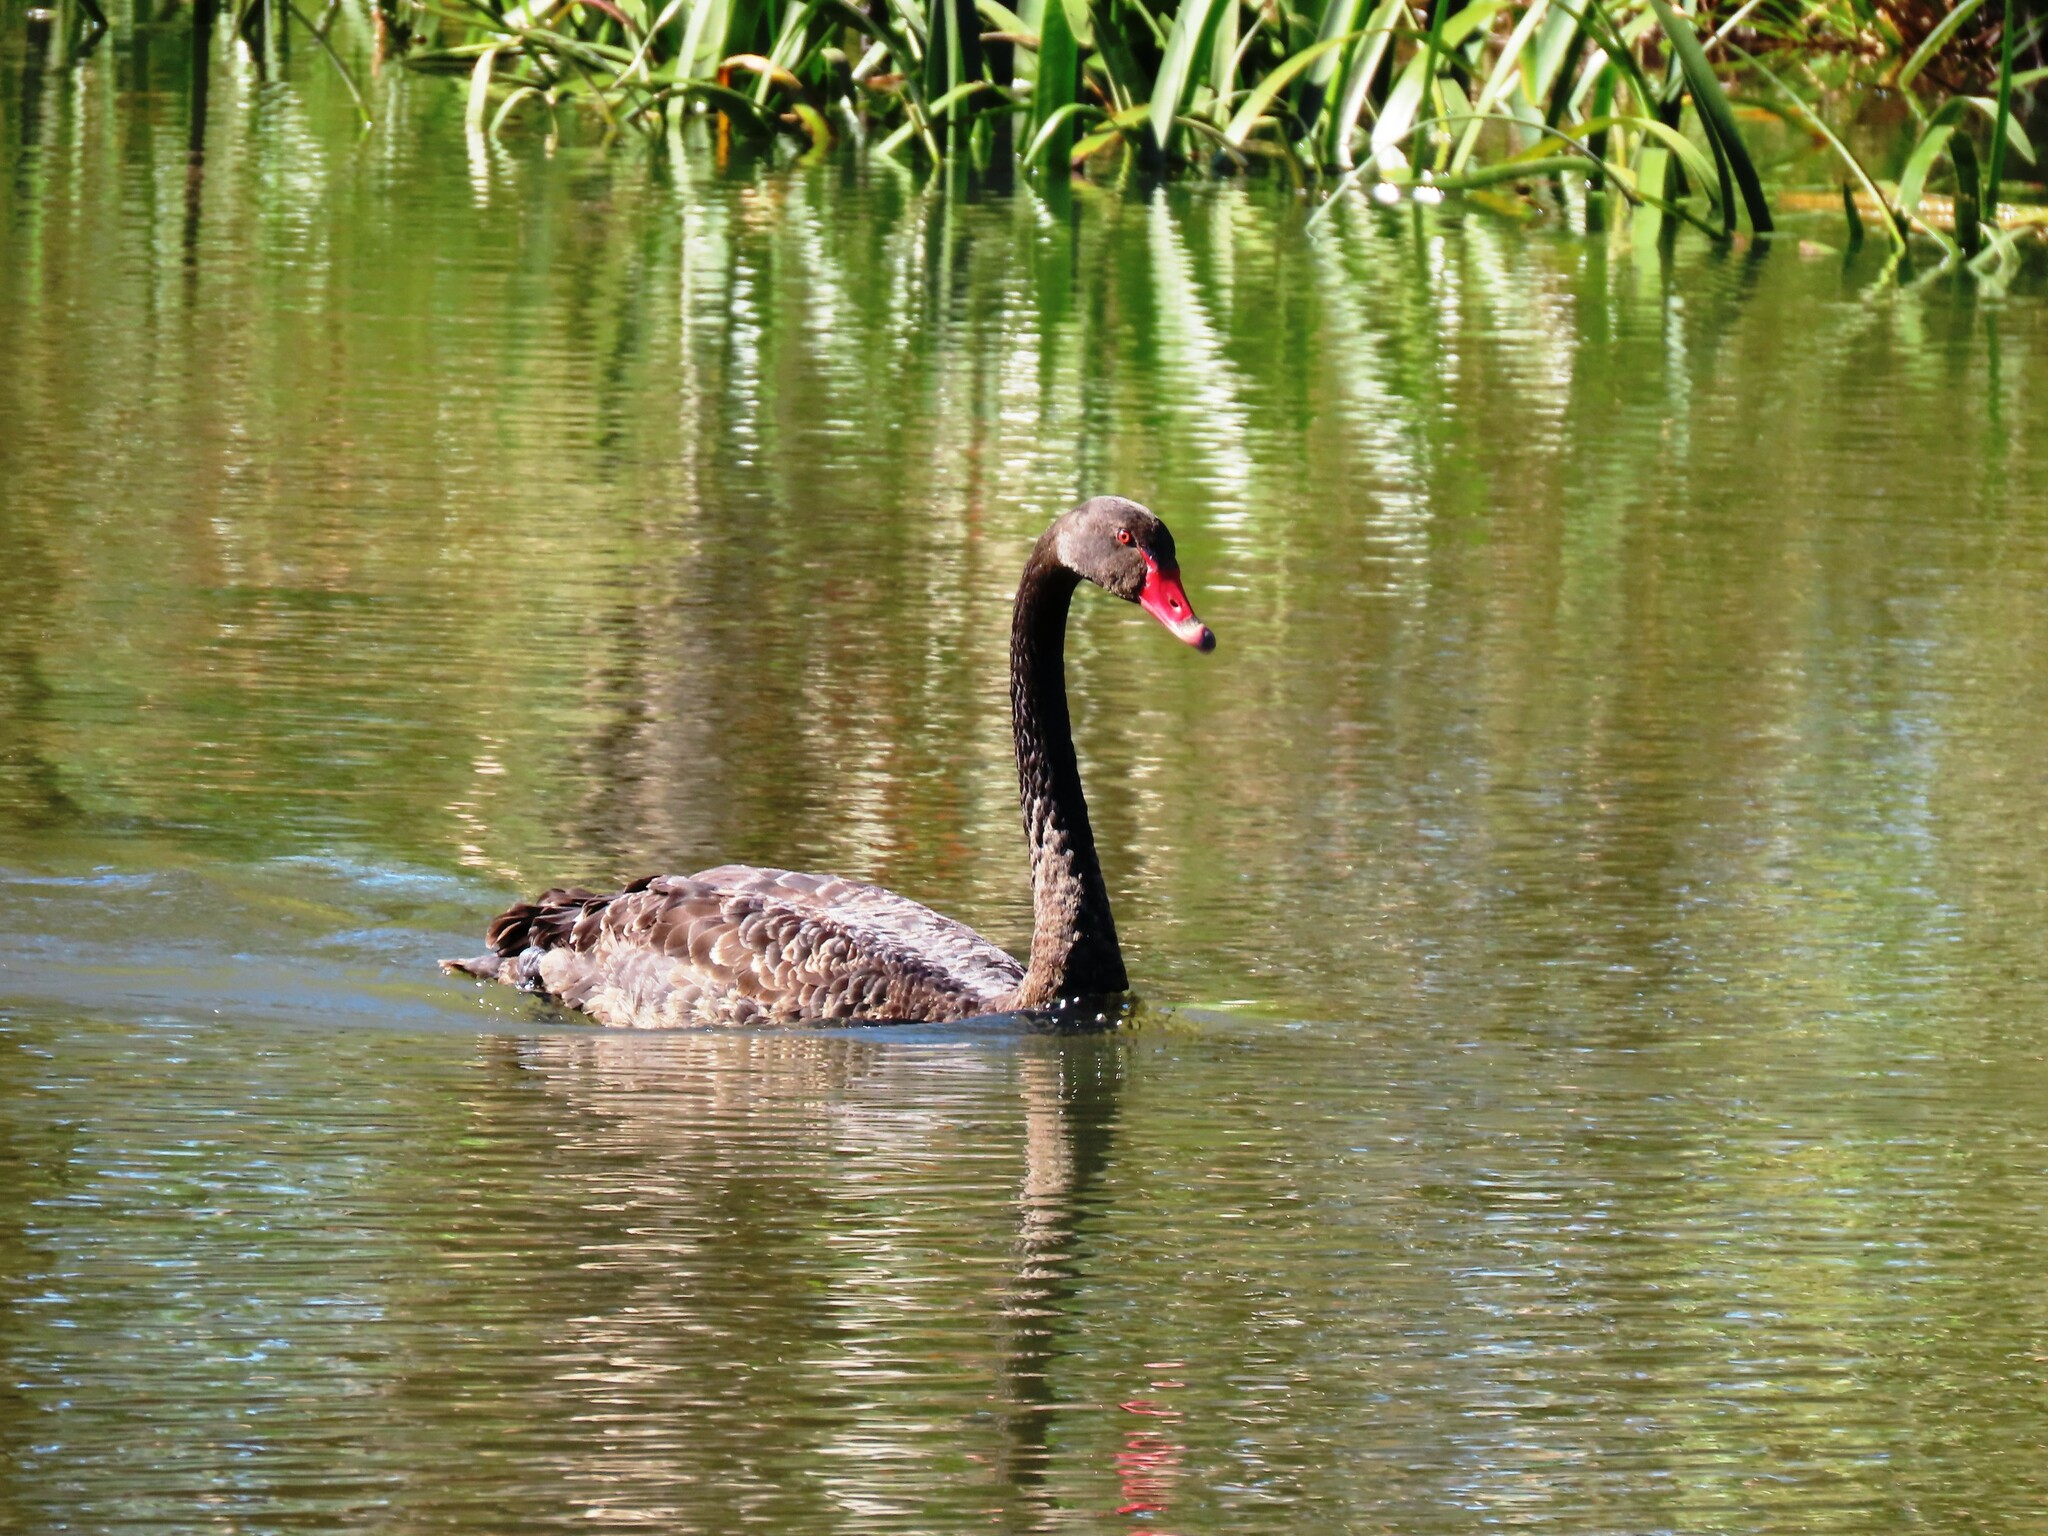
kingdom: Animalia
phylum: Chordata
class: Aves
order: Anseriformes
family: Anatidae
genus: Cygnus
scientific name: Cygnus atratus
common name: Black swan
